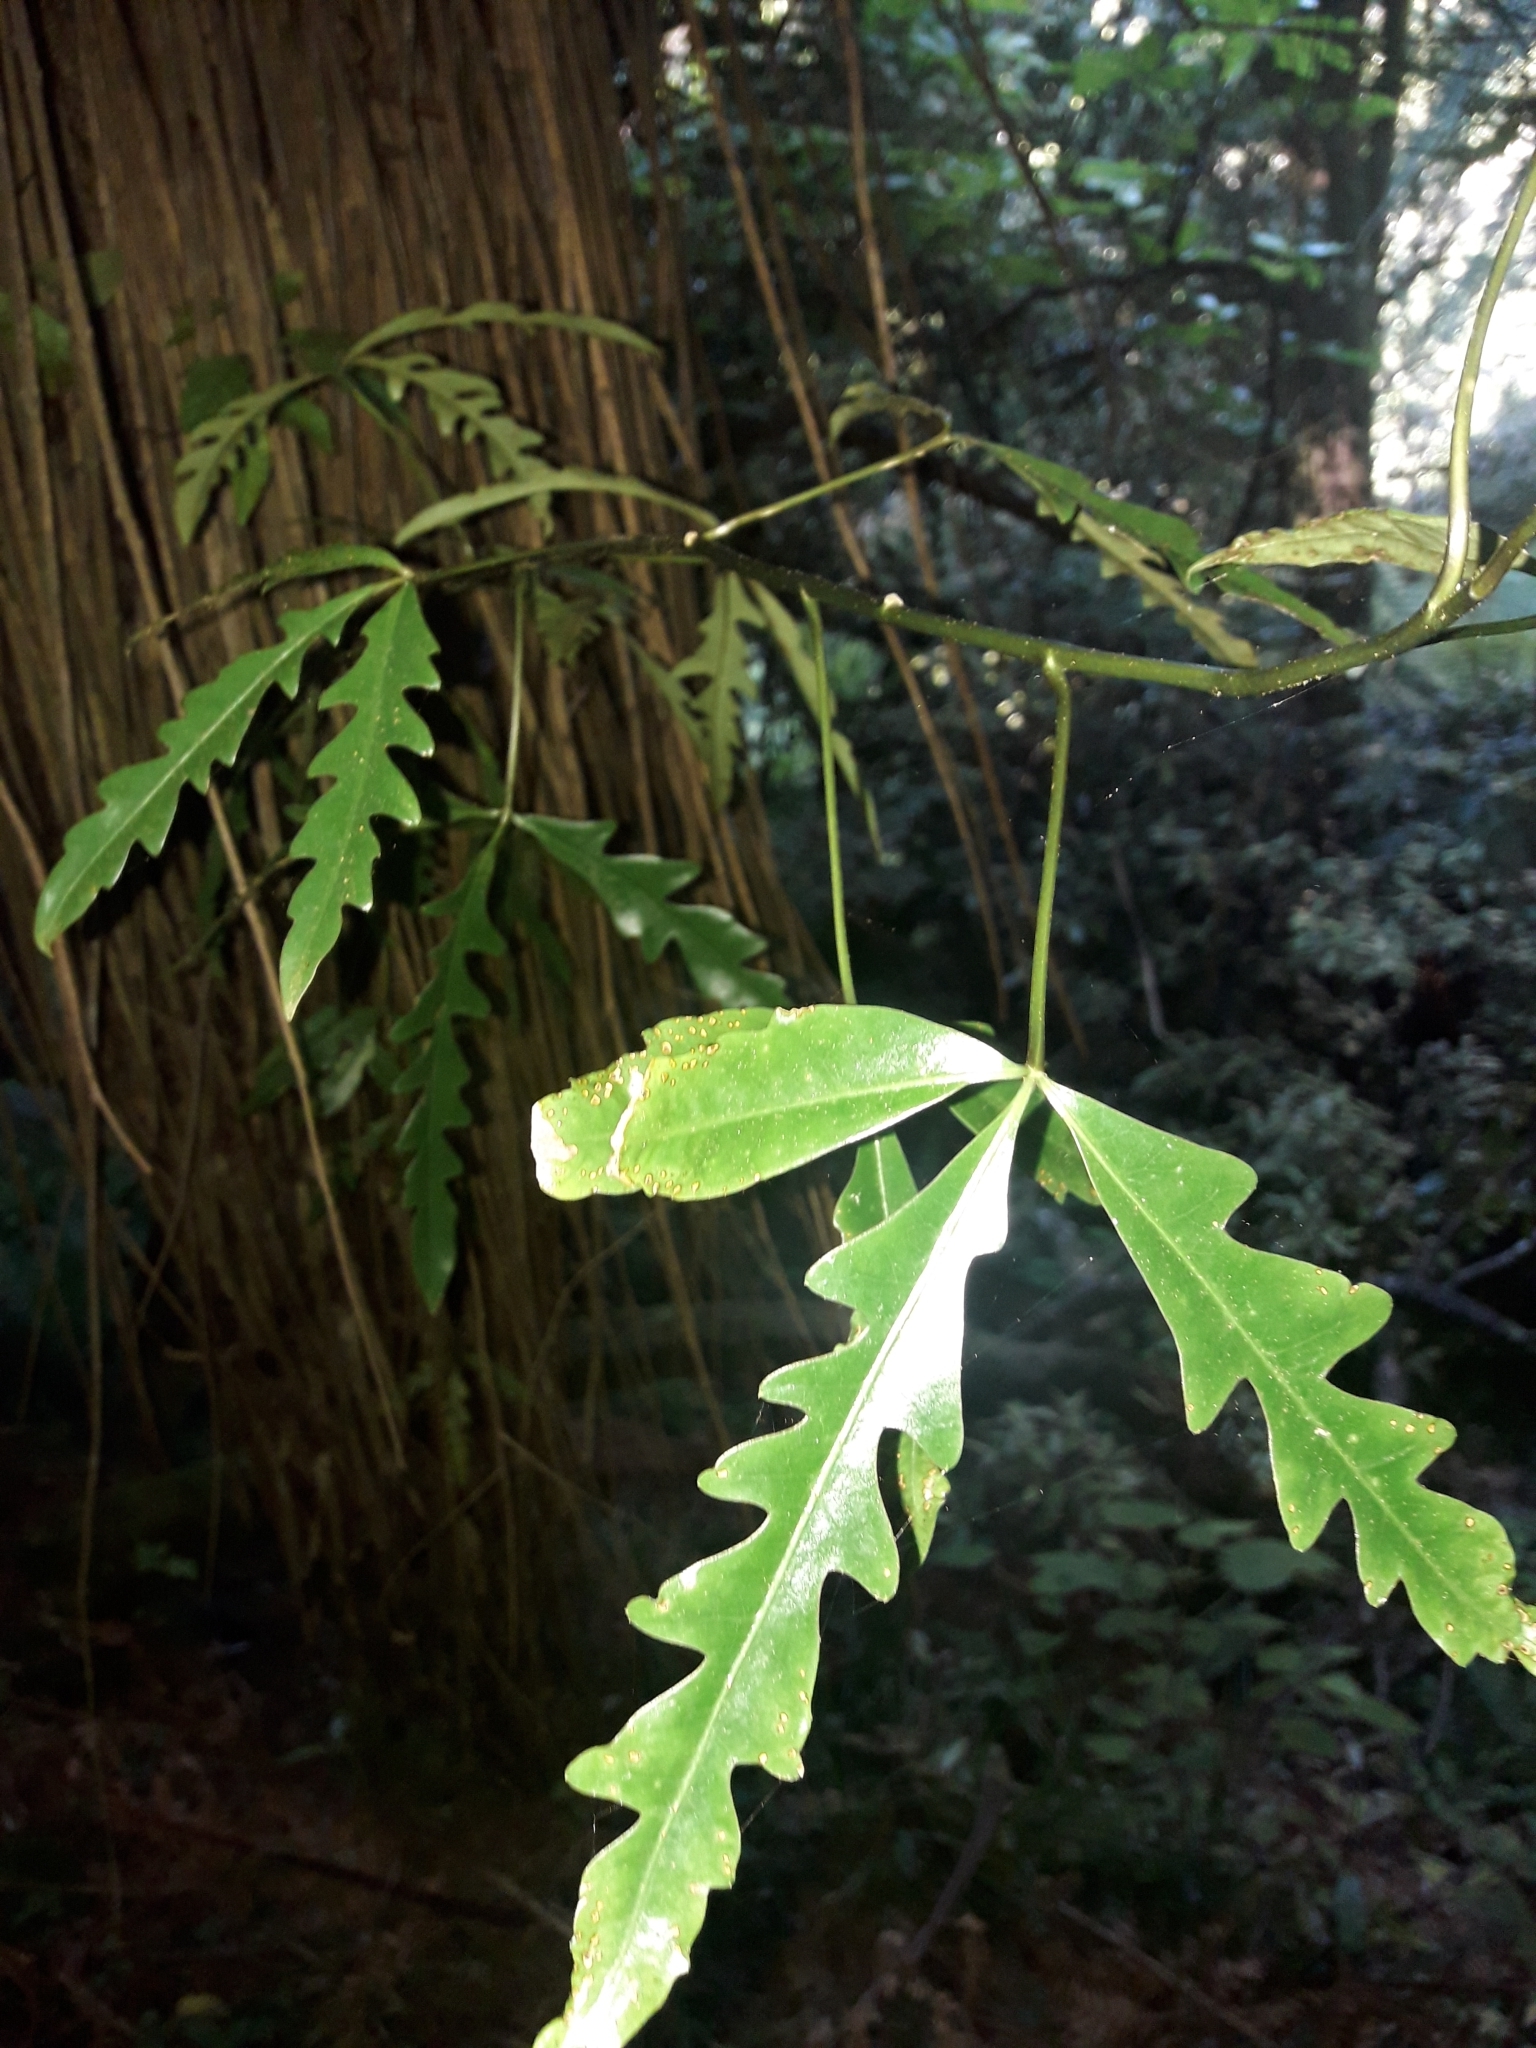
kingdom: Plantae
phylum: Tracheophyta
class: Magnoliopsida
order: Apiales
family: Araliaceae
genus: Raukaua
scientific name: Raukaua edgerleyi
